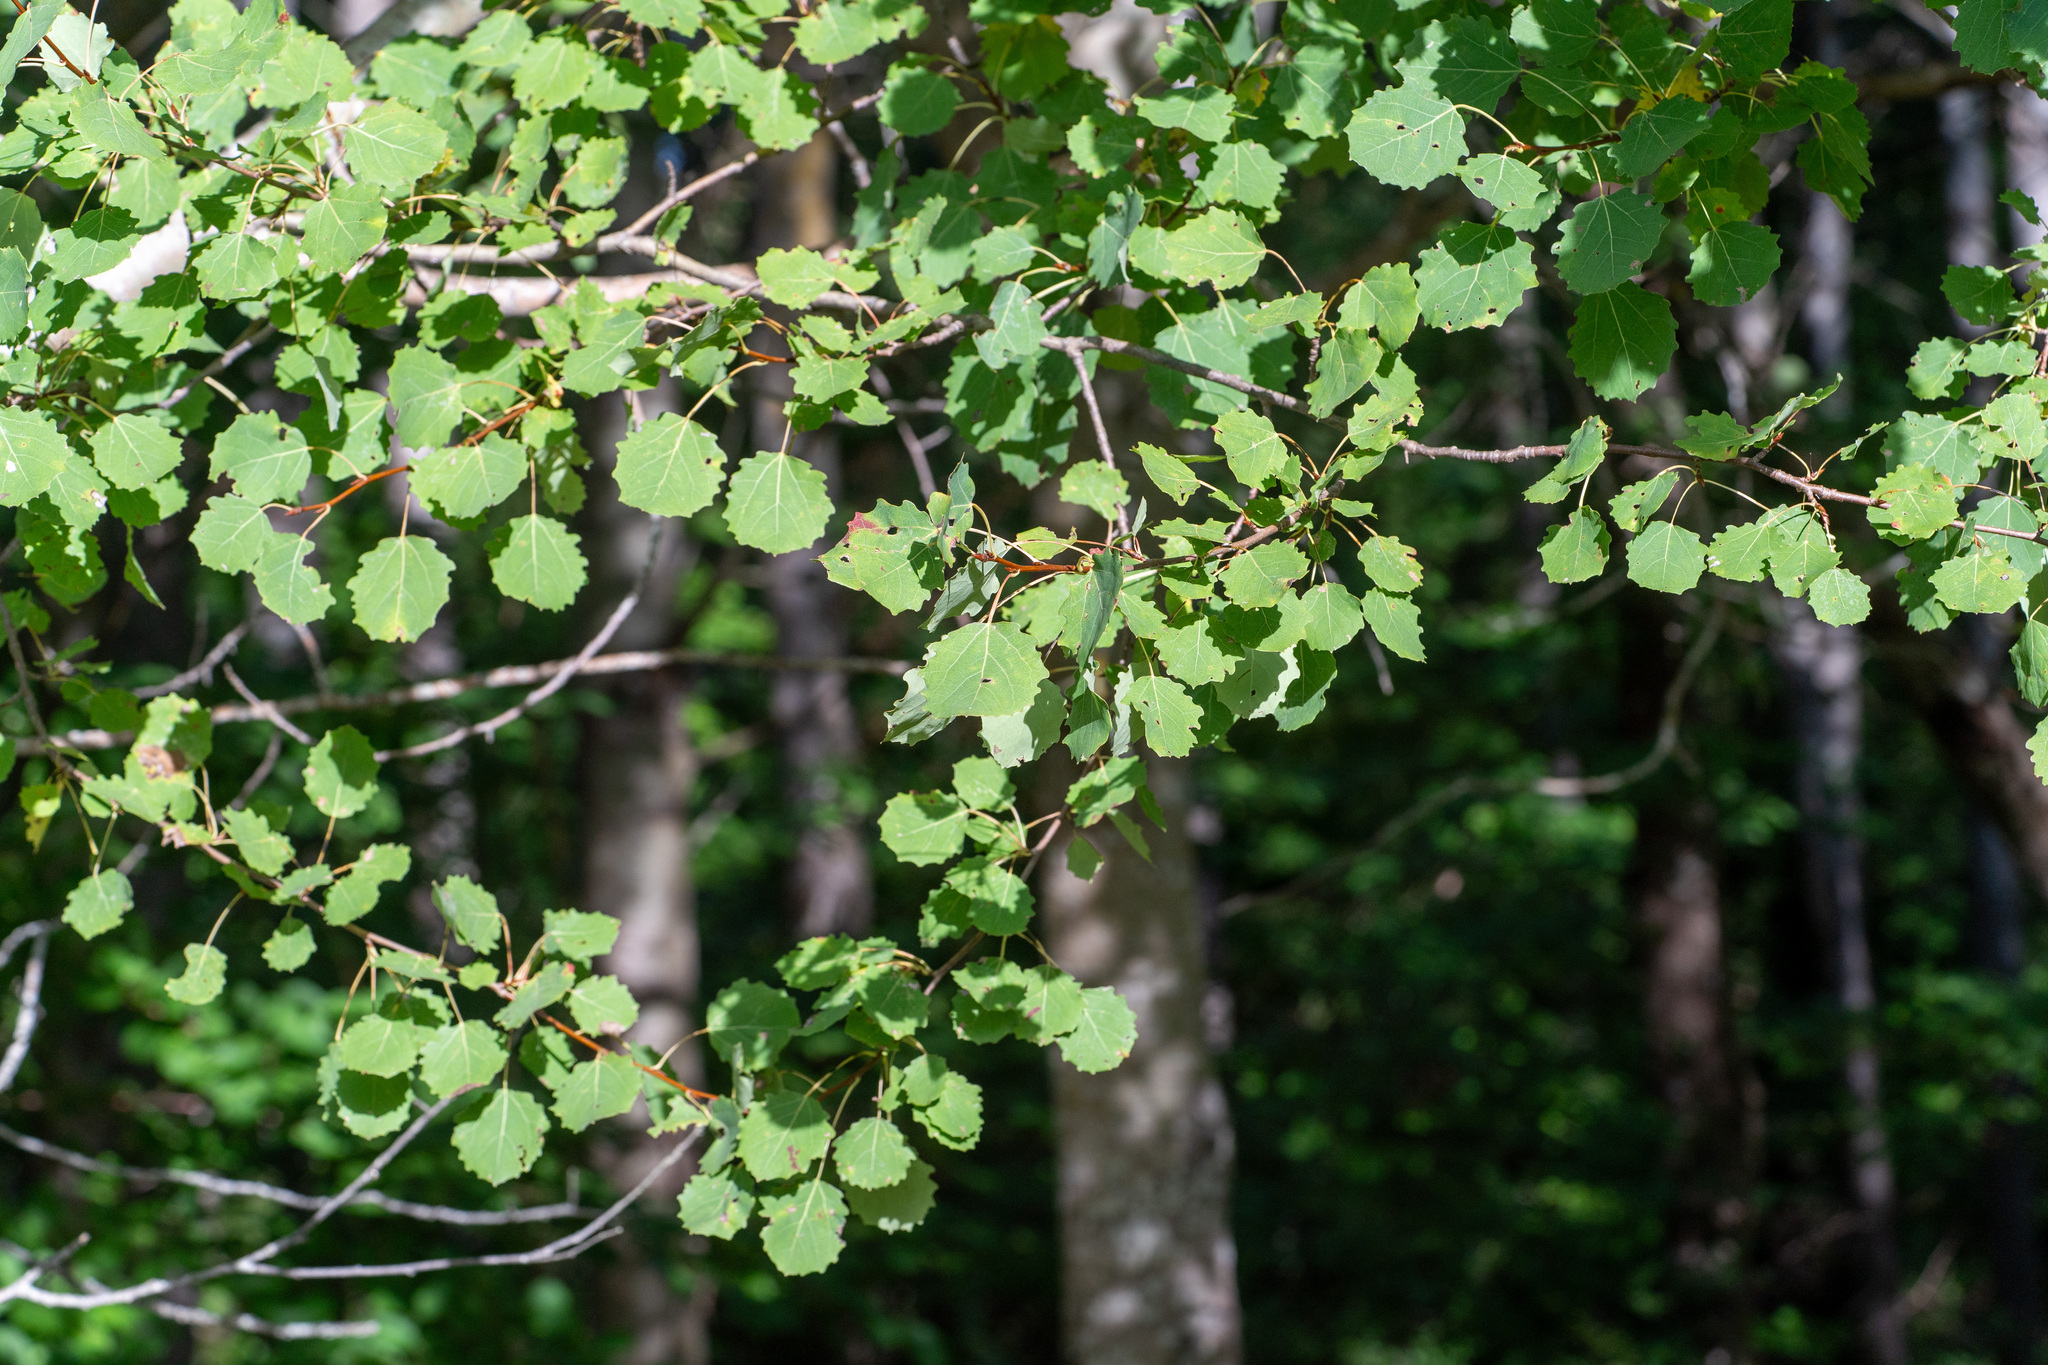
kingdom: Plantae
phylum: Tracheophyta
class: Magnoliopsida
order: Malpighiales
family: Salicaceae
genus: Populus
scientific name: Populus tremula
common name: European aspen
